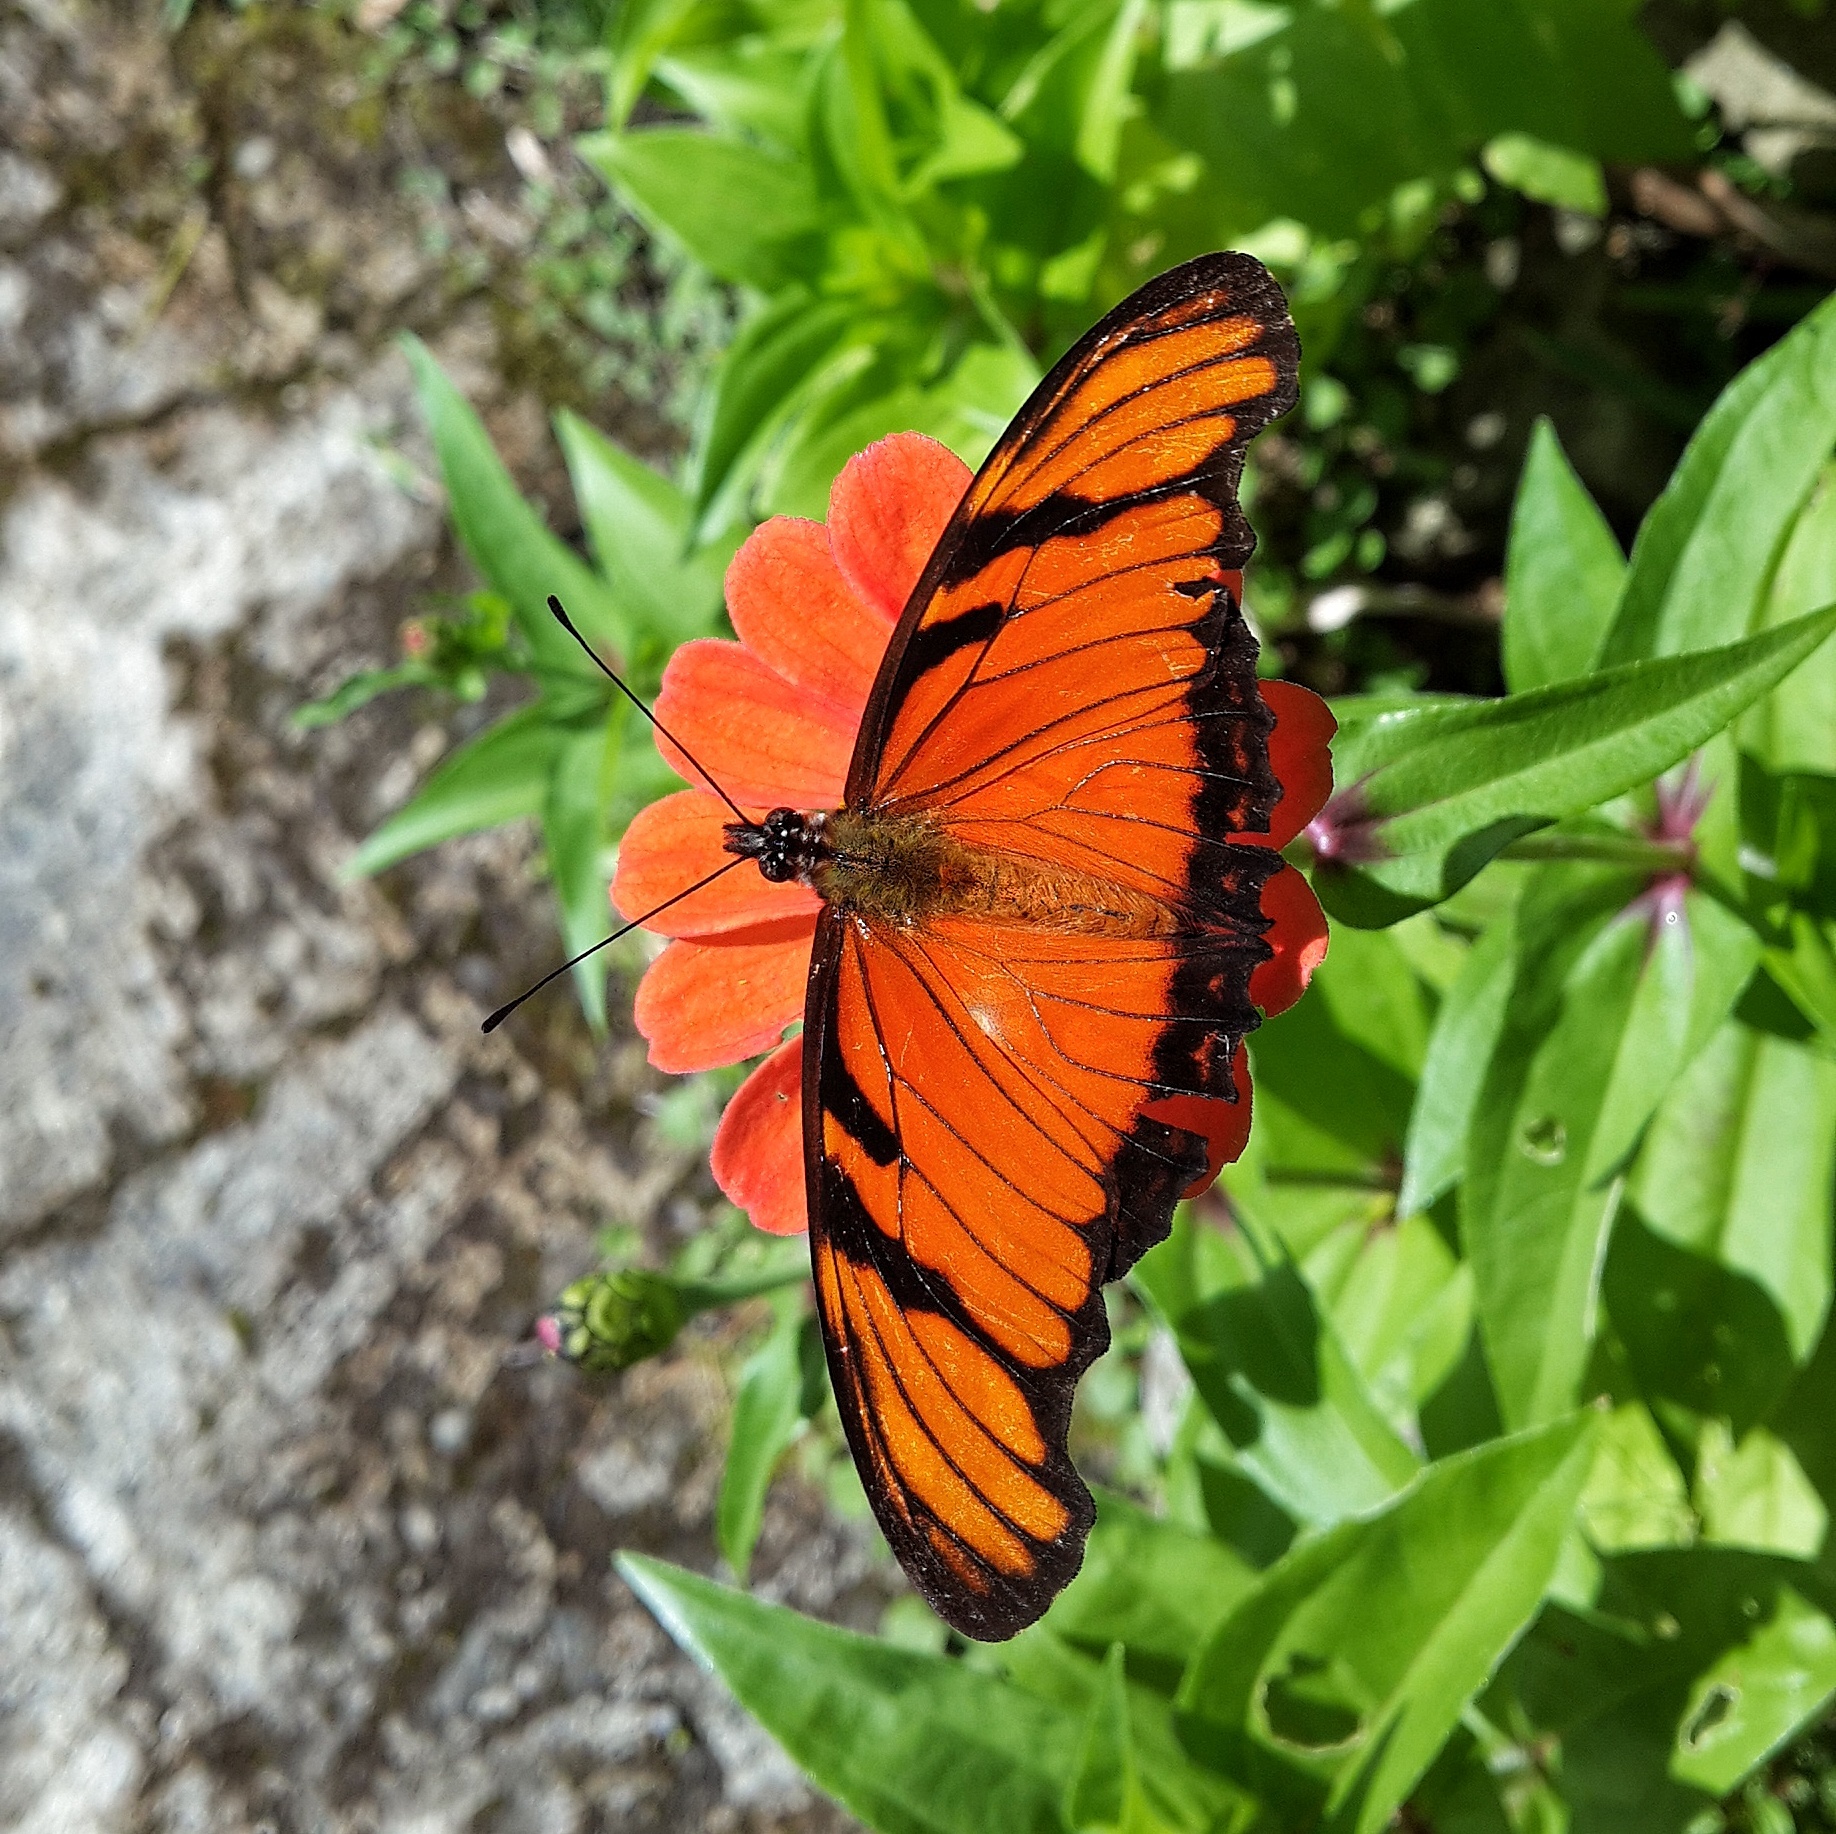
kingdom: Animalia
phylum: Arthropoda
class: Insecta
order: Lepidoptera
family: Nymphalidae
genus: Dione
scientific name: Dione juno
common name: Juno silverspot
